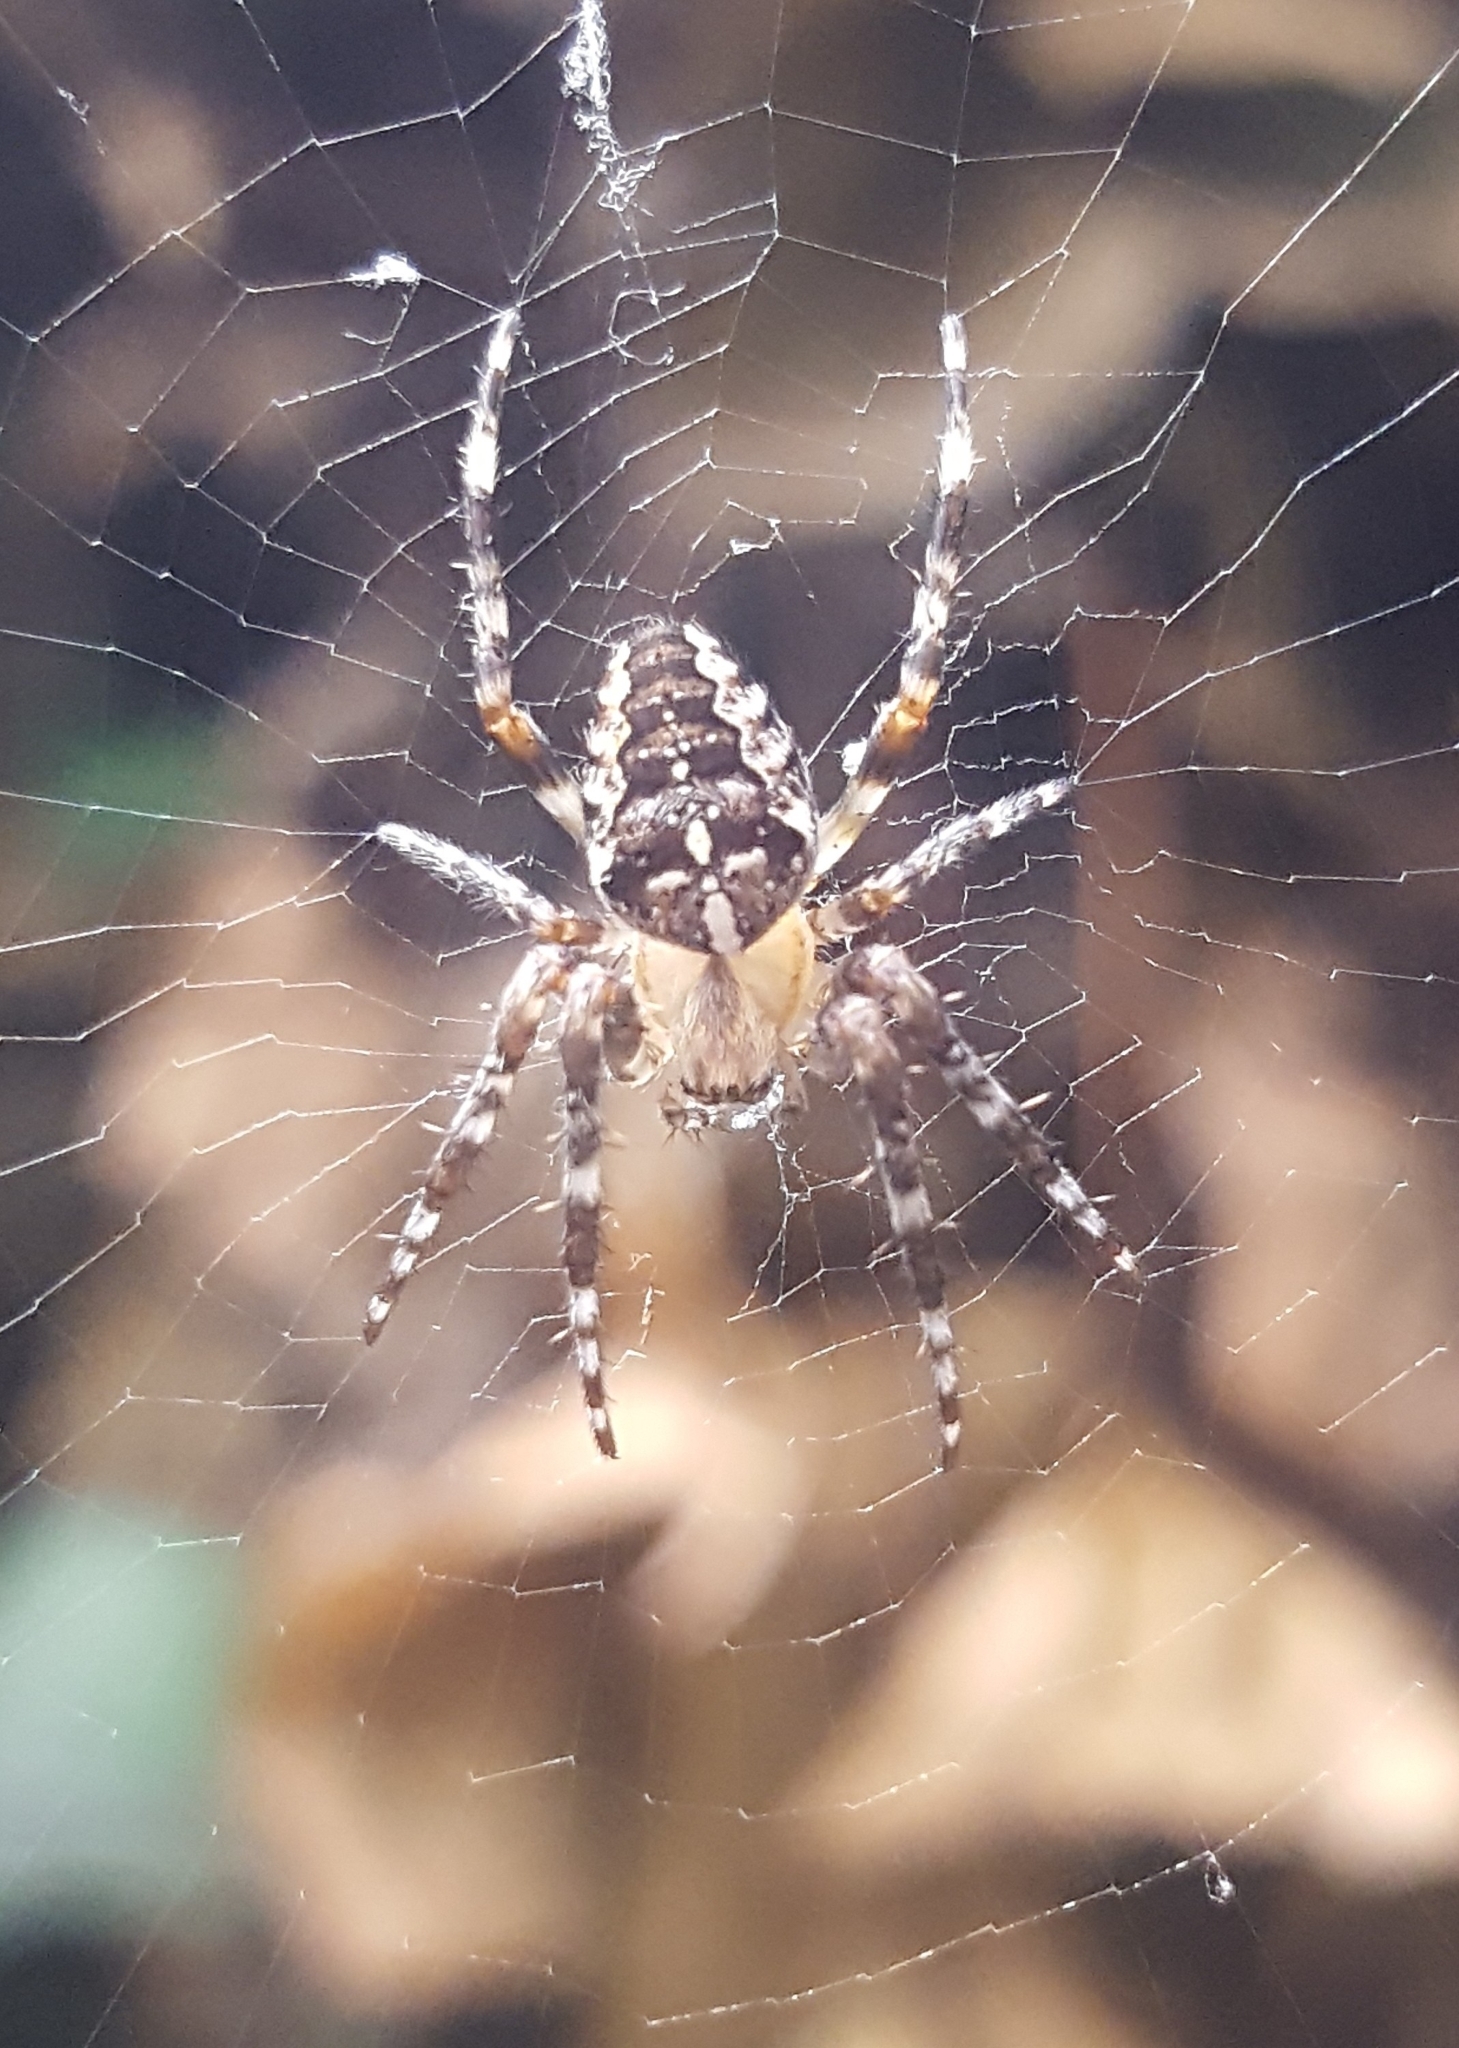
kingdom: Animalia
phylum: Arthropoda
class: Arachnida
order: Araneae
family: Araneidae
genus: Araneus
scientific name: Araneus diadematus
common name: Cross orbweaver
